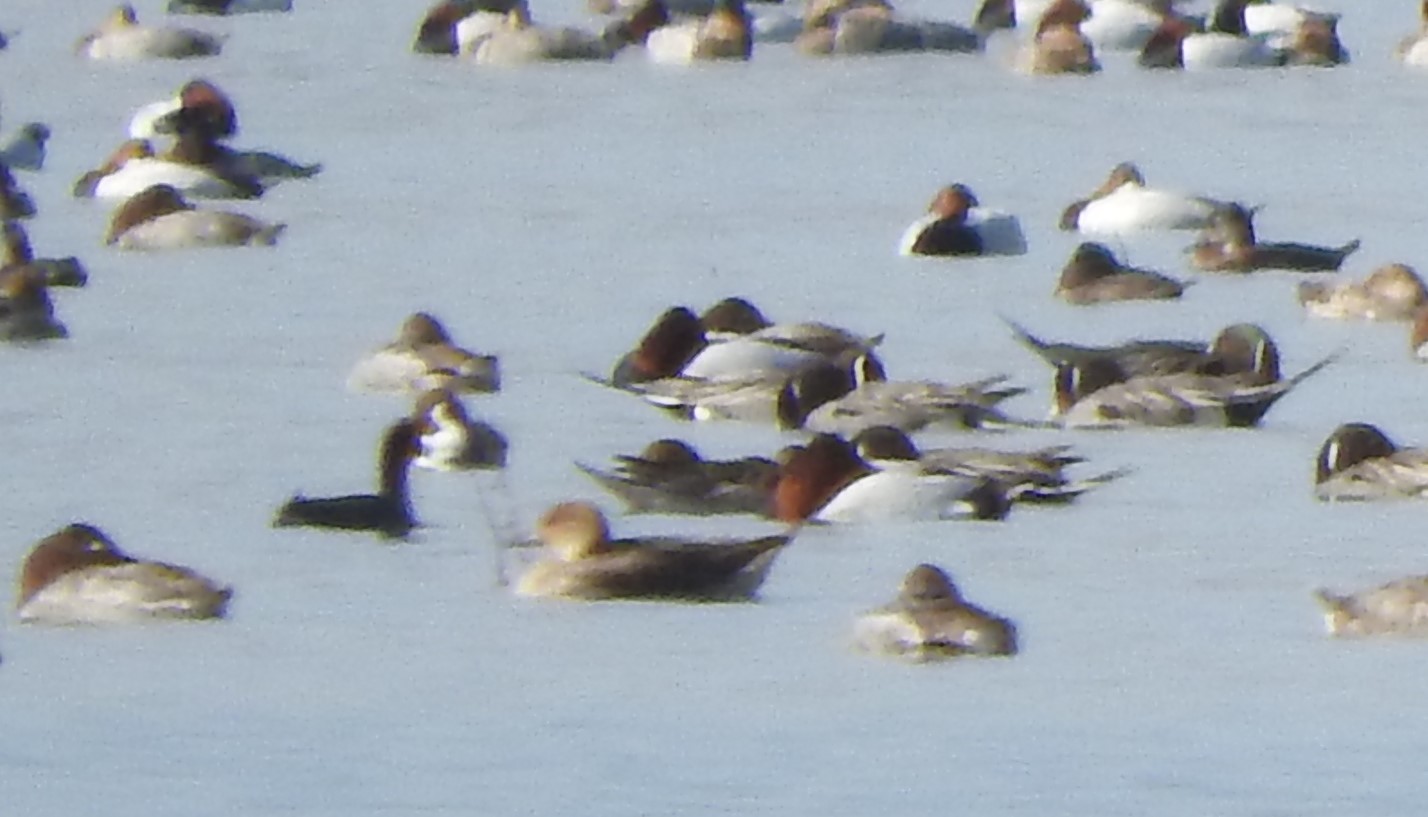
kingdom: Animalia
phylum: Chordata
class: Aves
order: Anseriformes
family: Anatidae
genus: Anas
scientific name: Anas acuta
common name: Northern pintail
